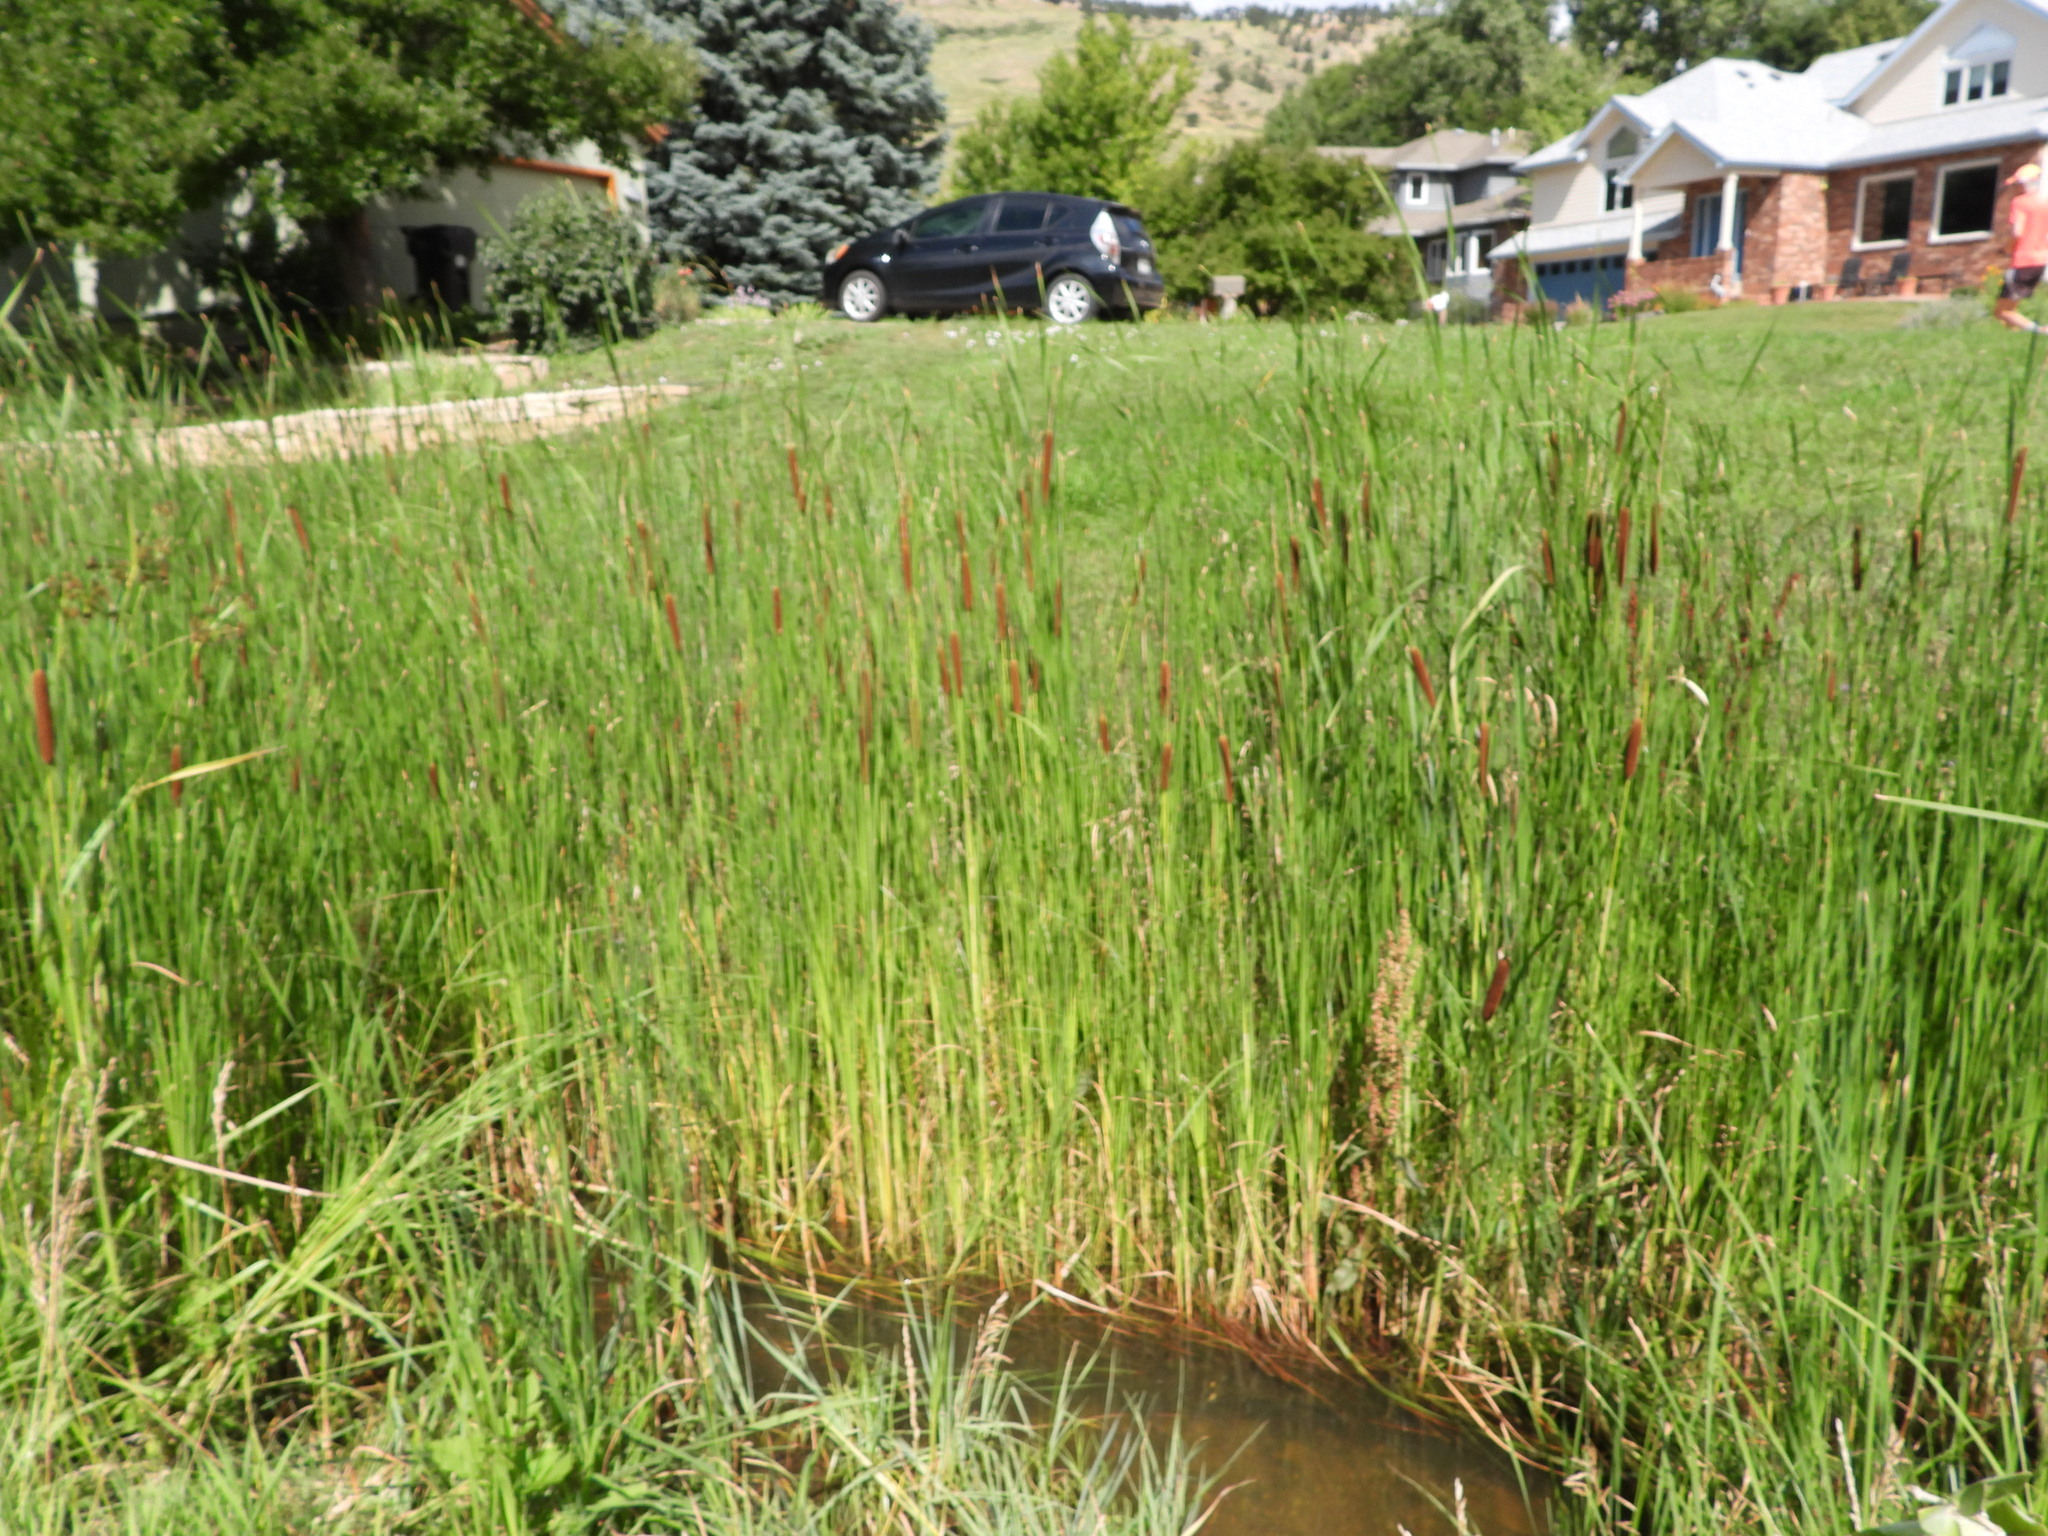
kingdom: Plantae
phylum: Tracheophyta
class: Liliopsida
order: Poales
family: Typhaceae
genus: Typha
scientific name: Typha
